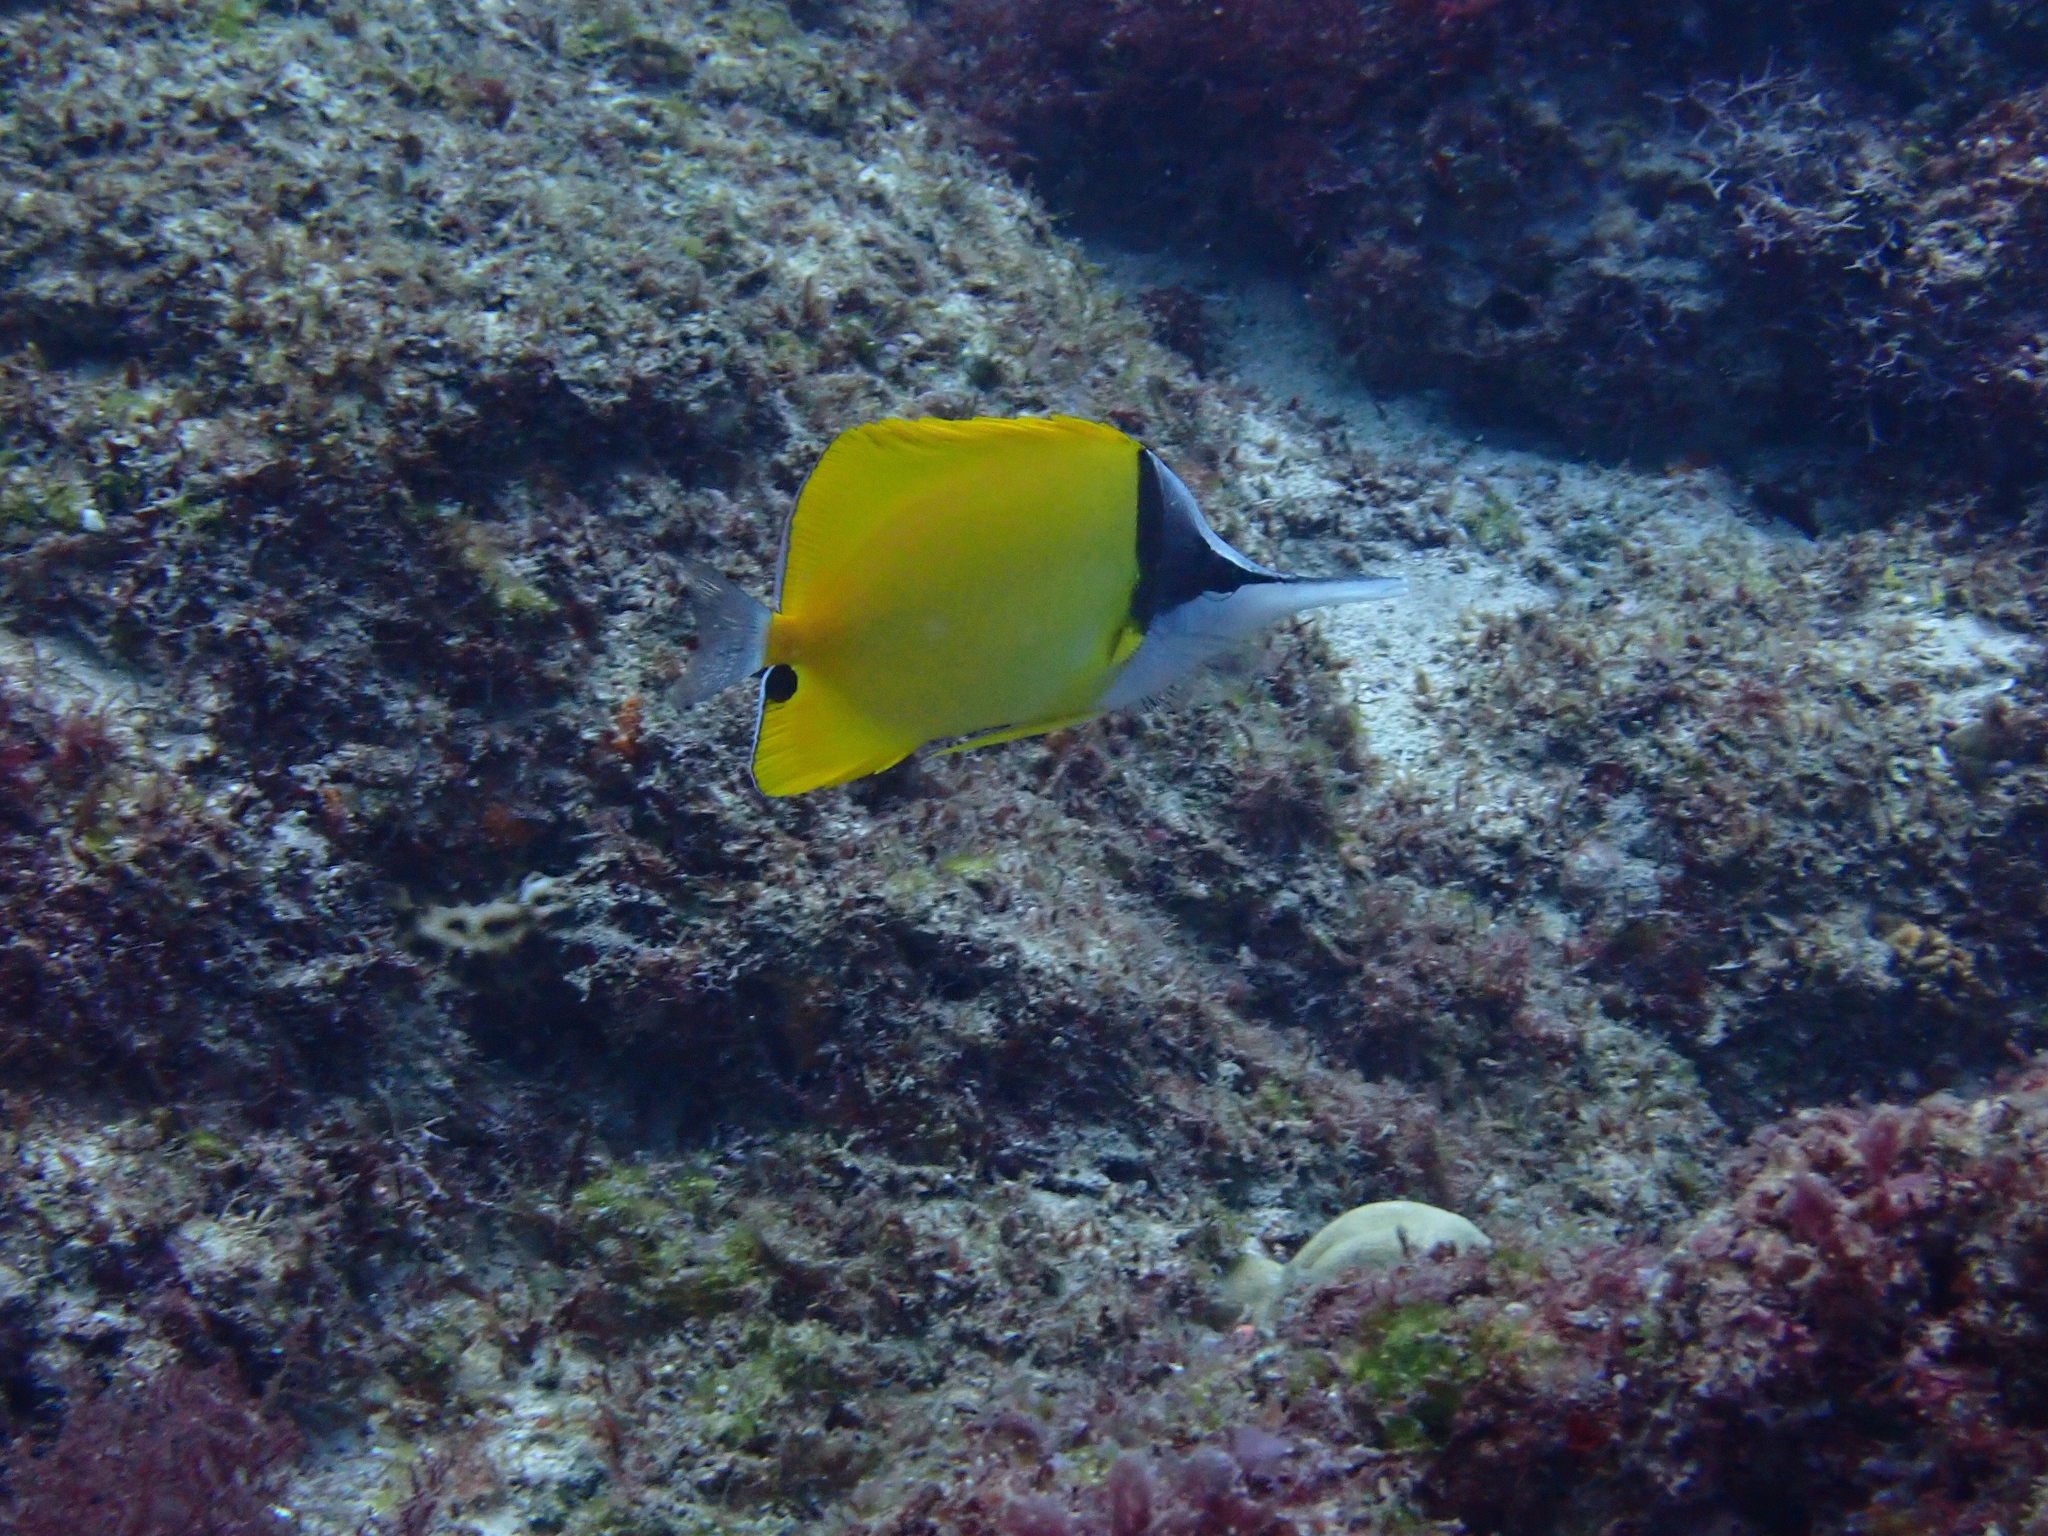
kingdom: Animalia
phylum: Chordata
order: Perciformes
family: Chaetodontidae
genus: Forcipiger
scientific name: Forcipiger flavissimus
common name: Forcepsfish
